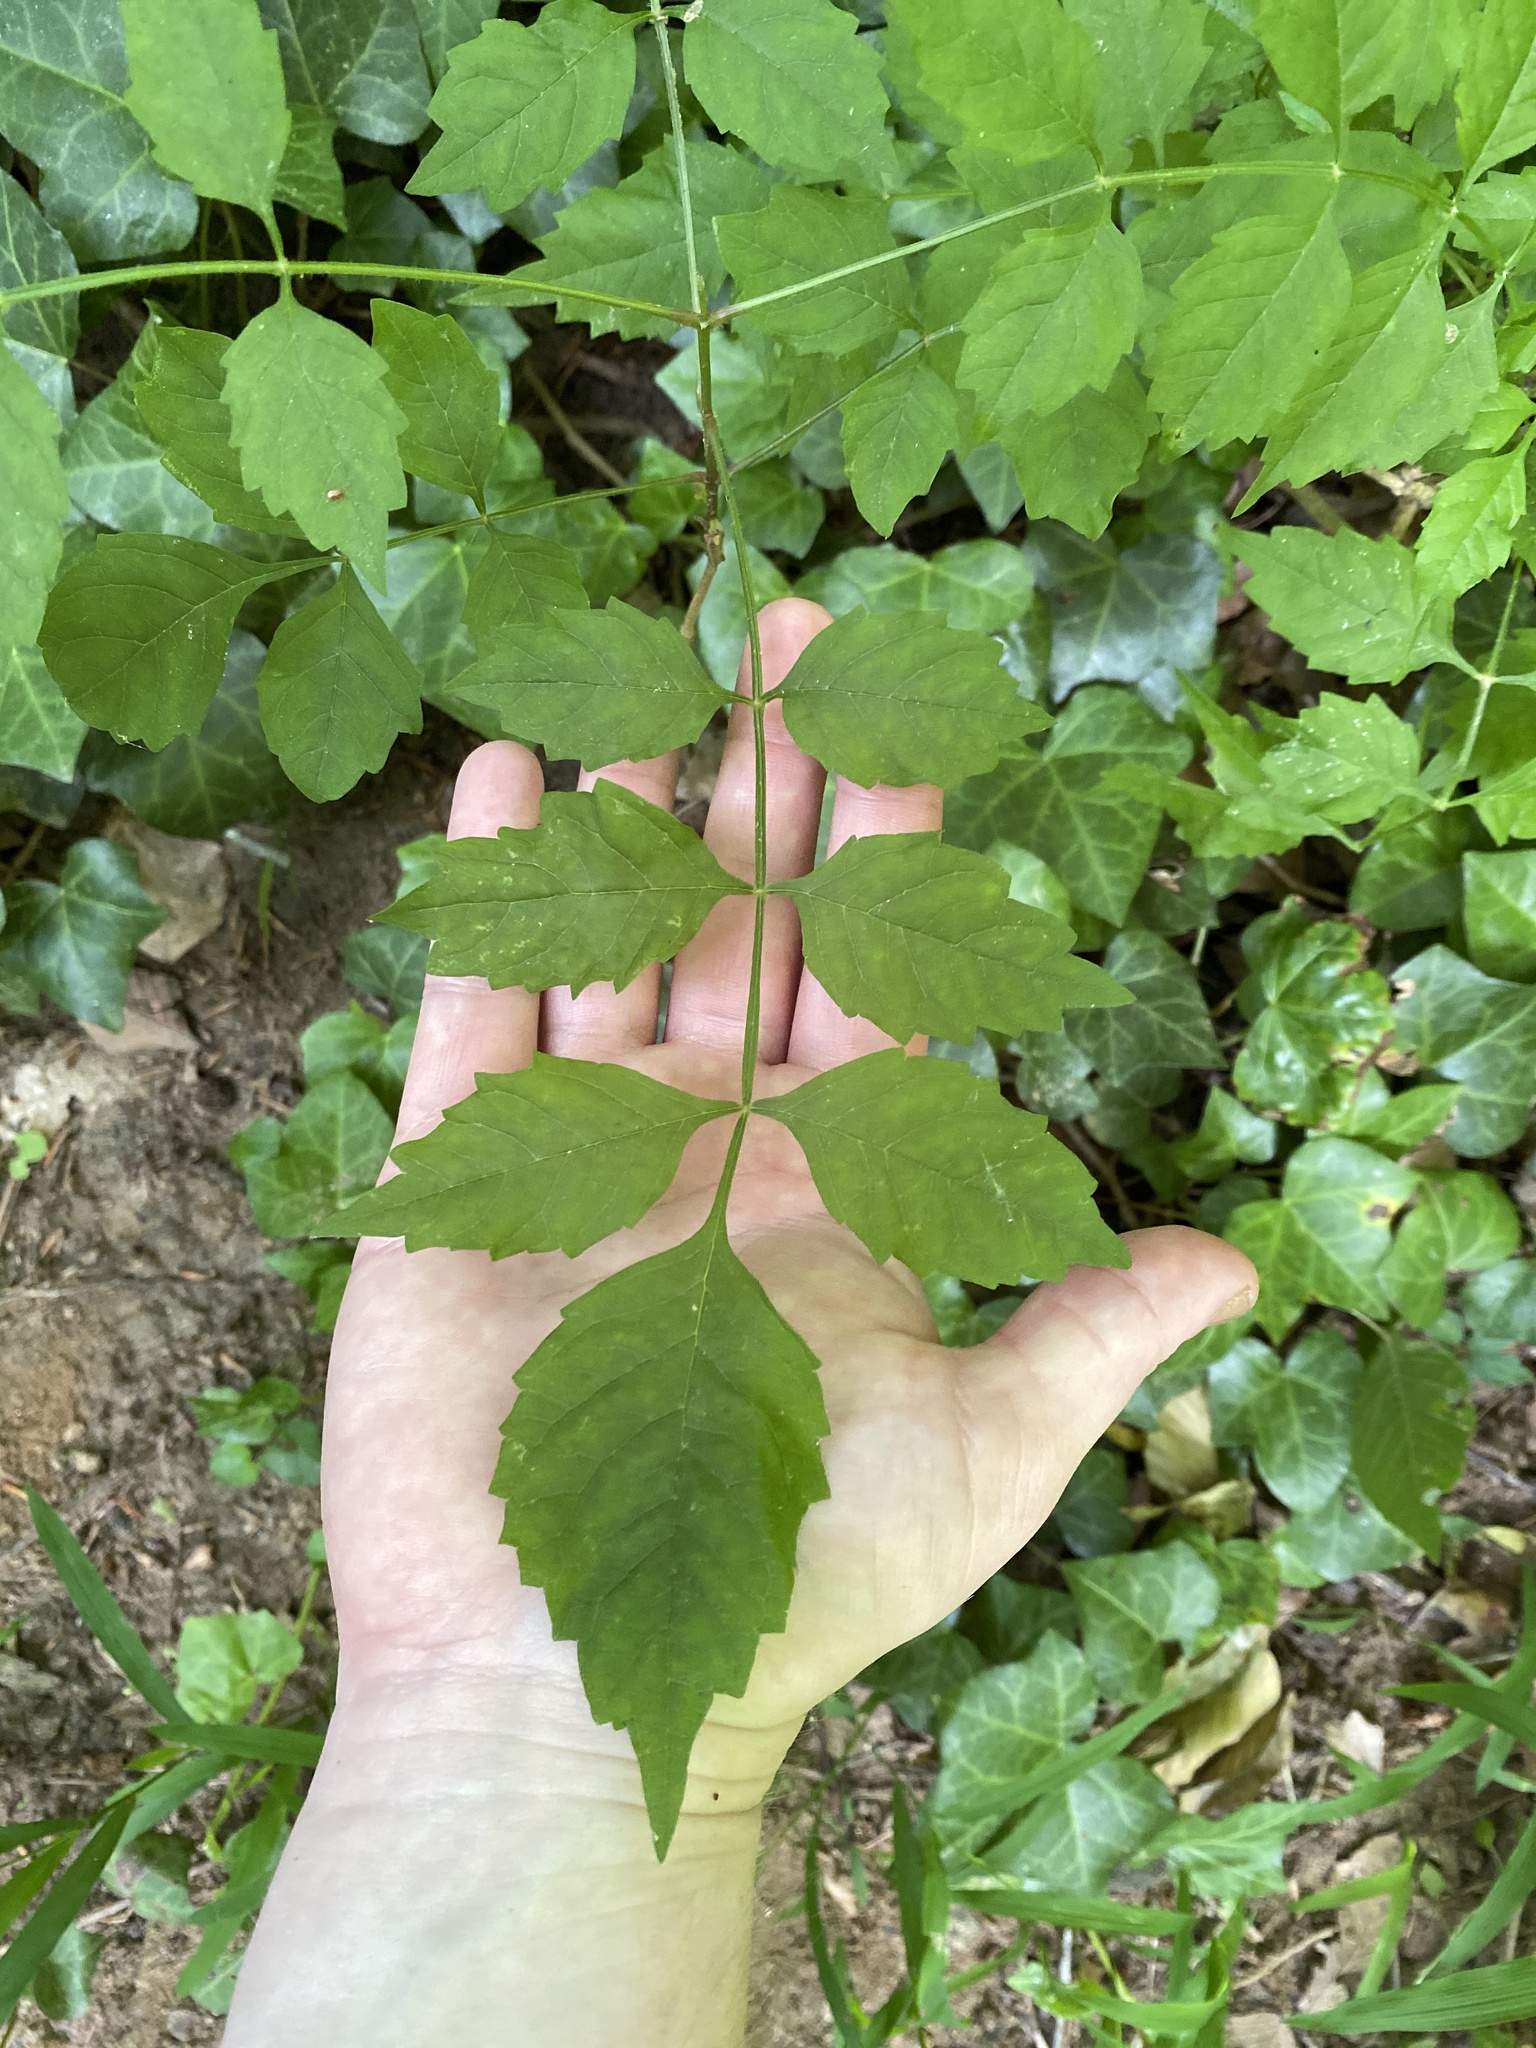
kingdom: Plantae
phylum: Tracheophyta
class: Magnoliopsida
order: Lamiales
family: Bignoniaceae
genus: Campsis
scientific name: Campsis radicans
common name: Trumpet-creeper
